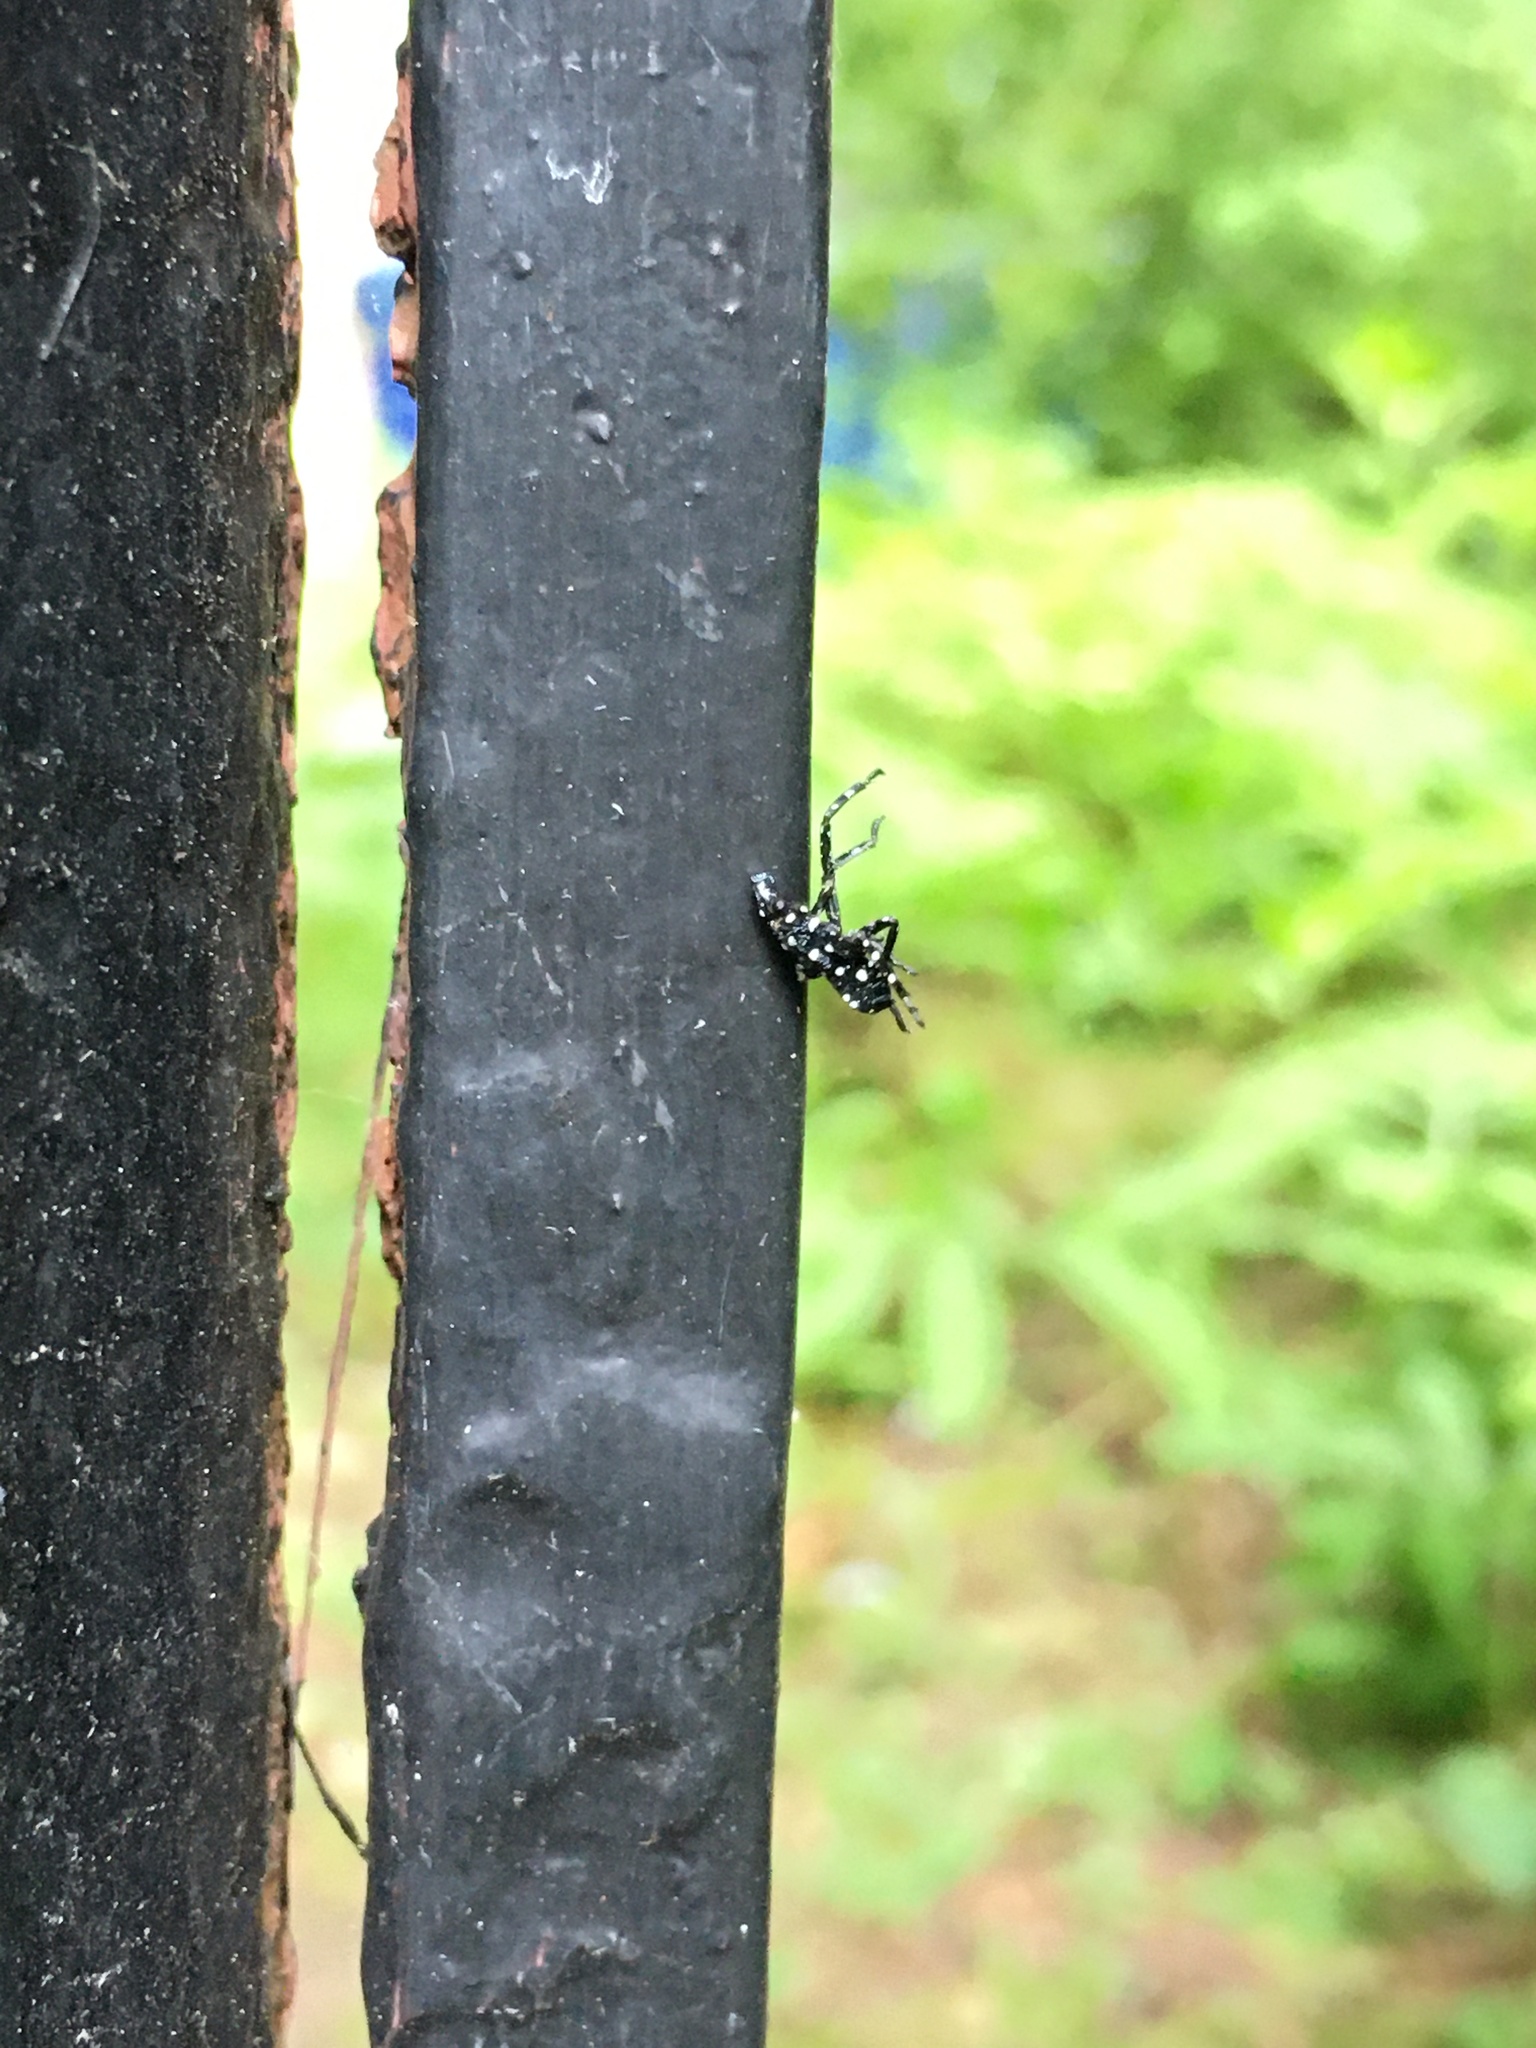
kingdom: Animalia
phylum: Arthropoda
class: Insecta
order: Hemiptera
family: Fulgoridae
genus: Lycorma
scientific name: Lycorma delicatula
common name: Spotted lanternfly
